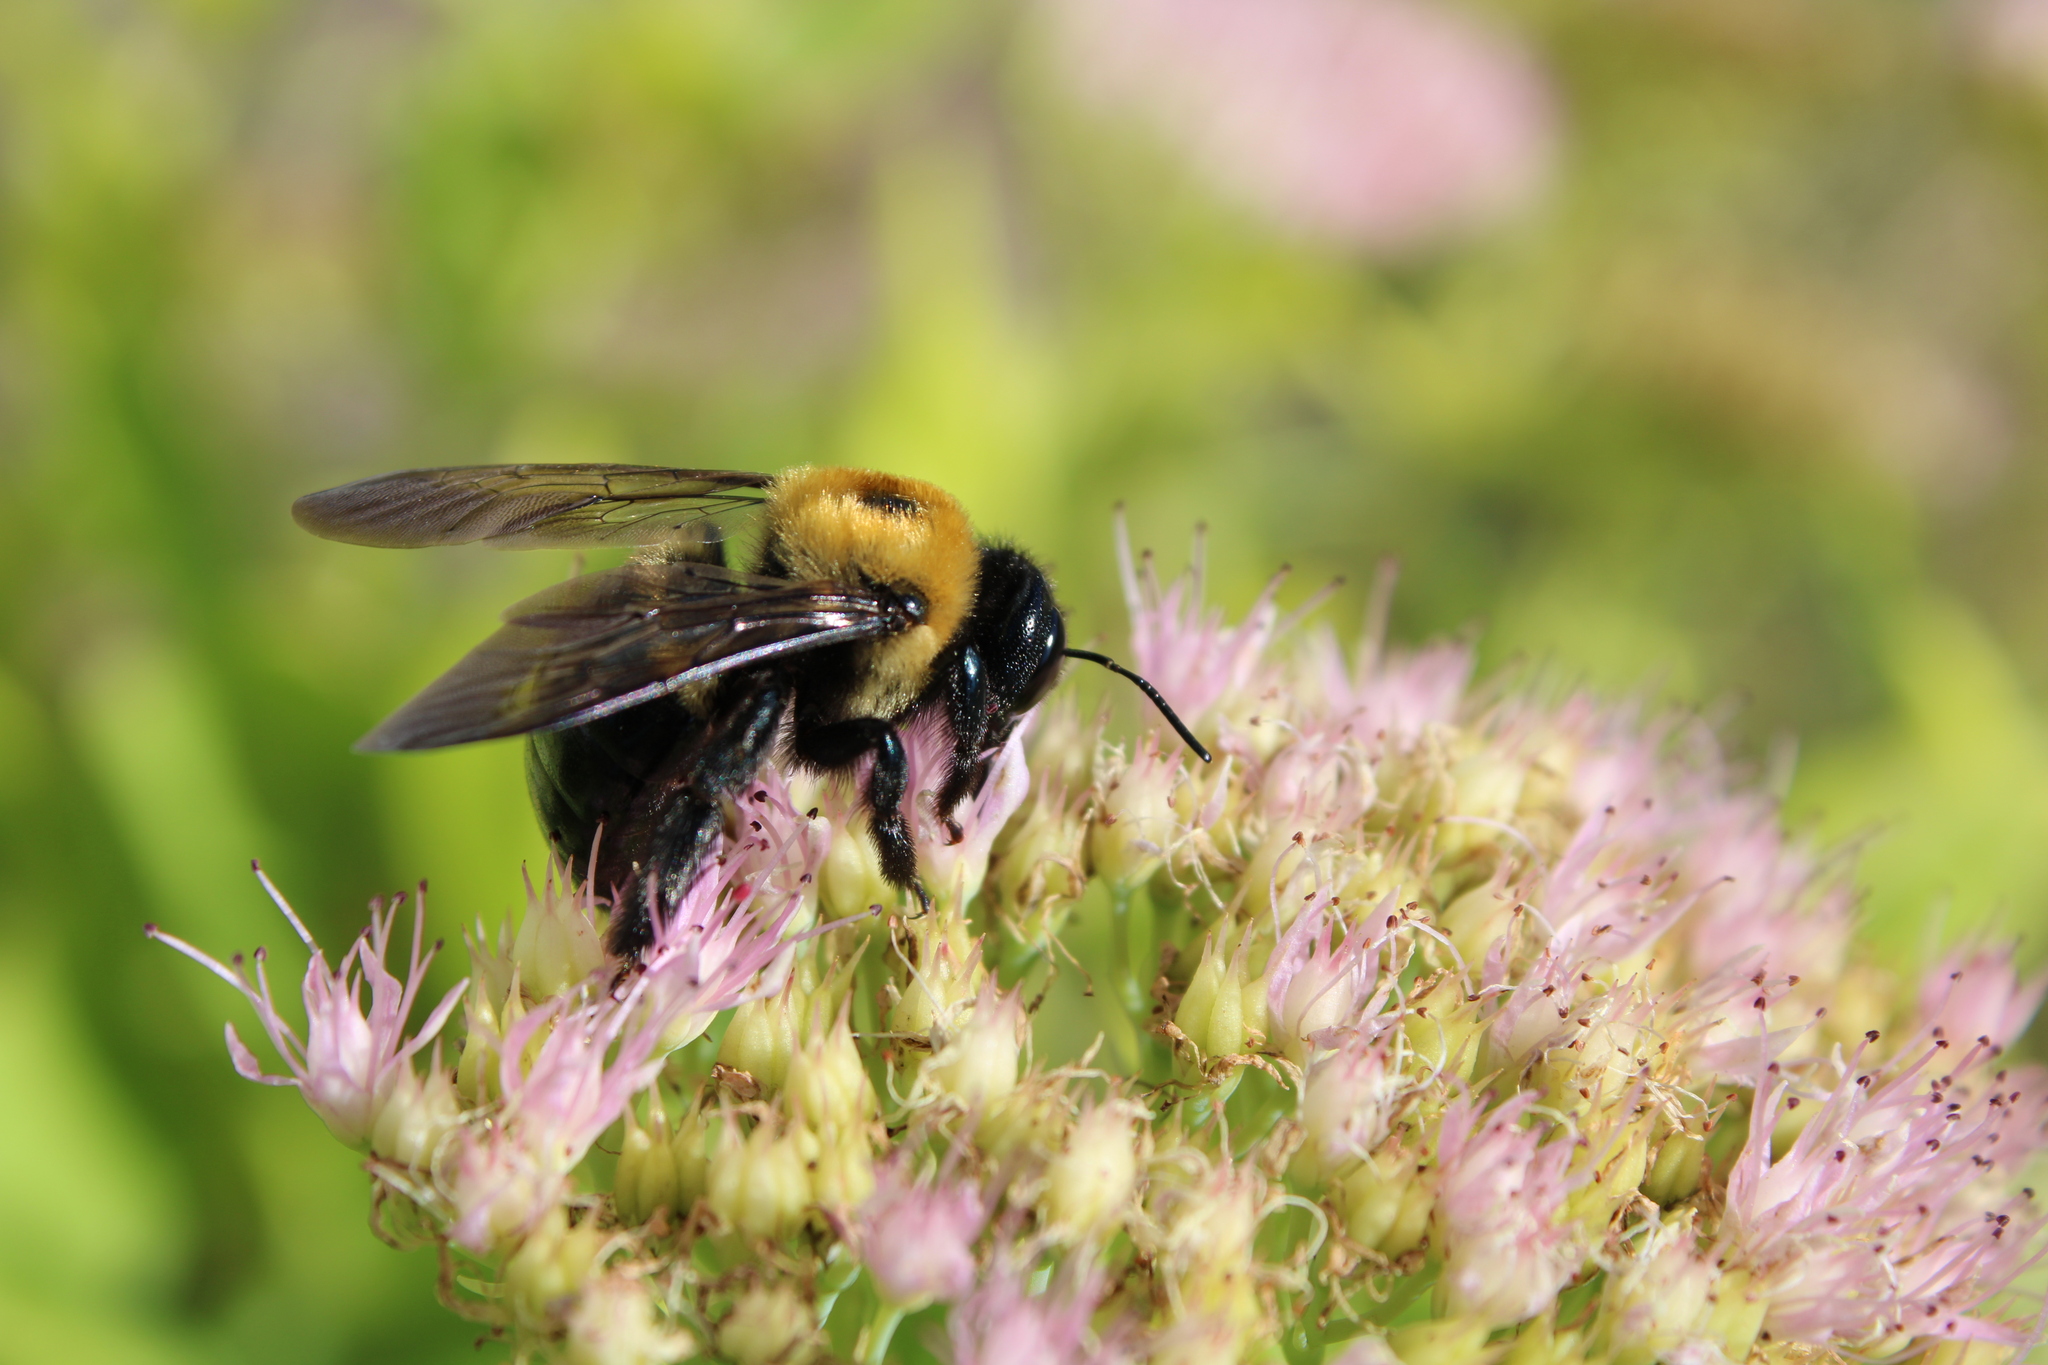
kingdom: Animalia
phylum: Arthropoda
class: Insecta
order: Hymenoptera
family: Apidae
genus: Xylocopa
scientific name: Xylocopa virginica
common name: Carpenter bee
